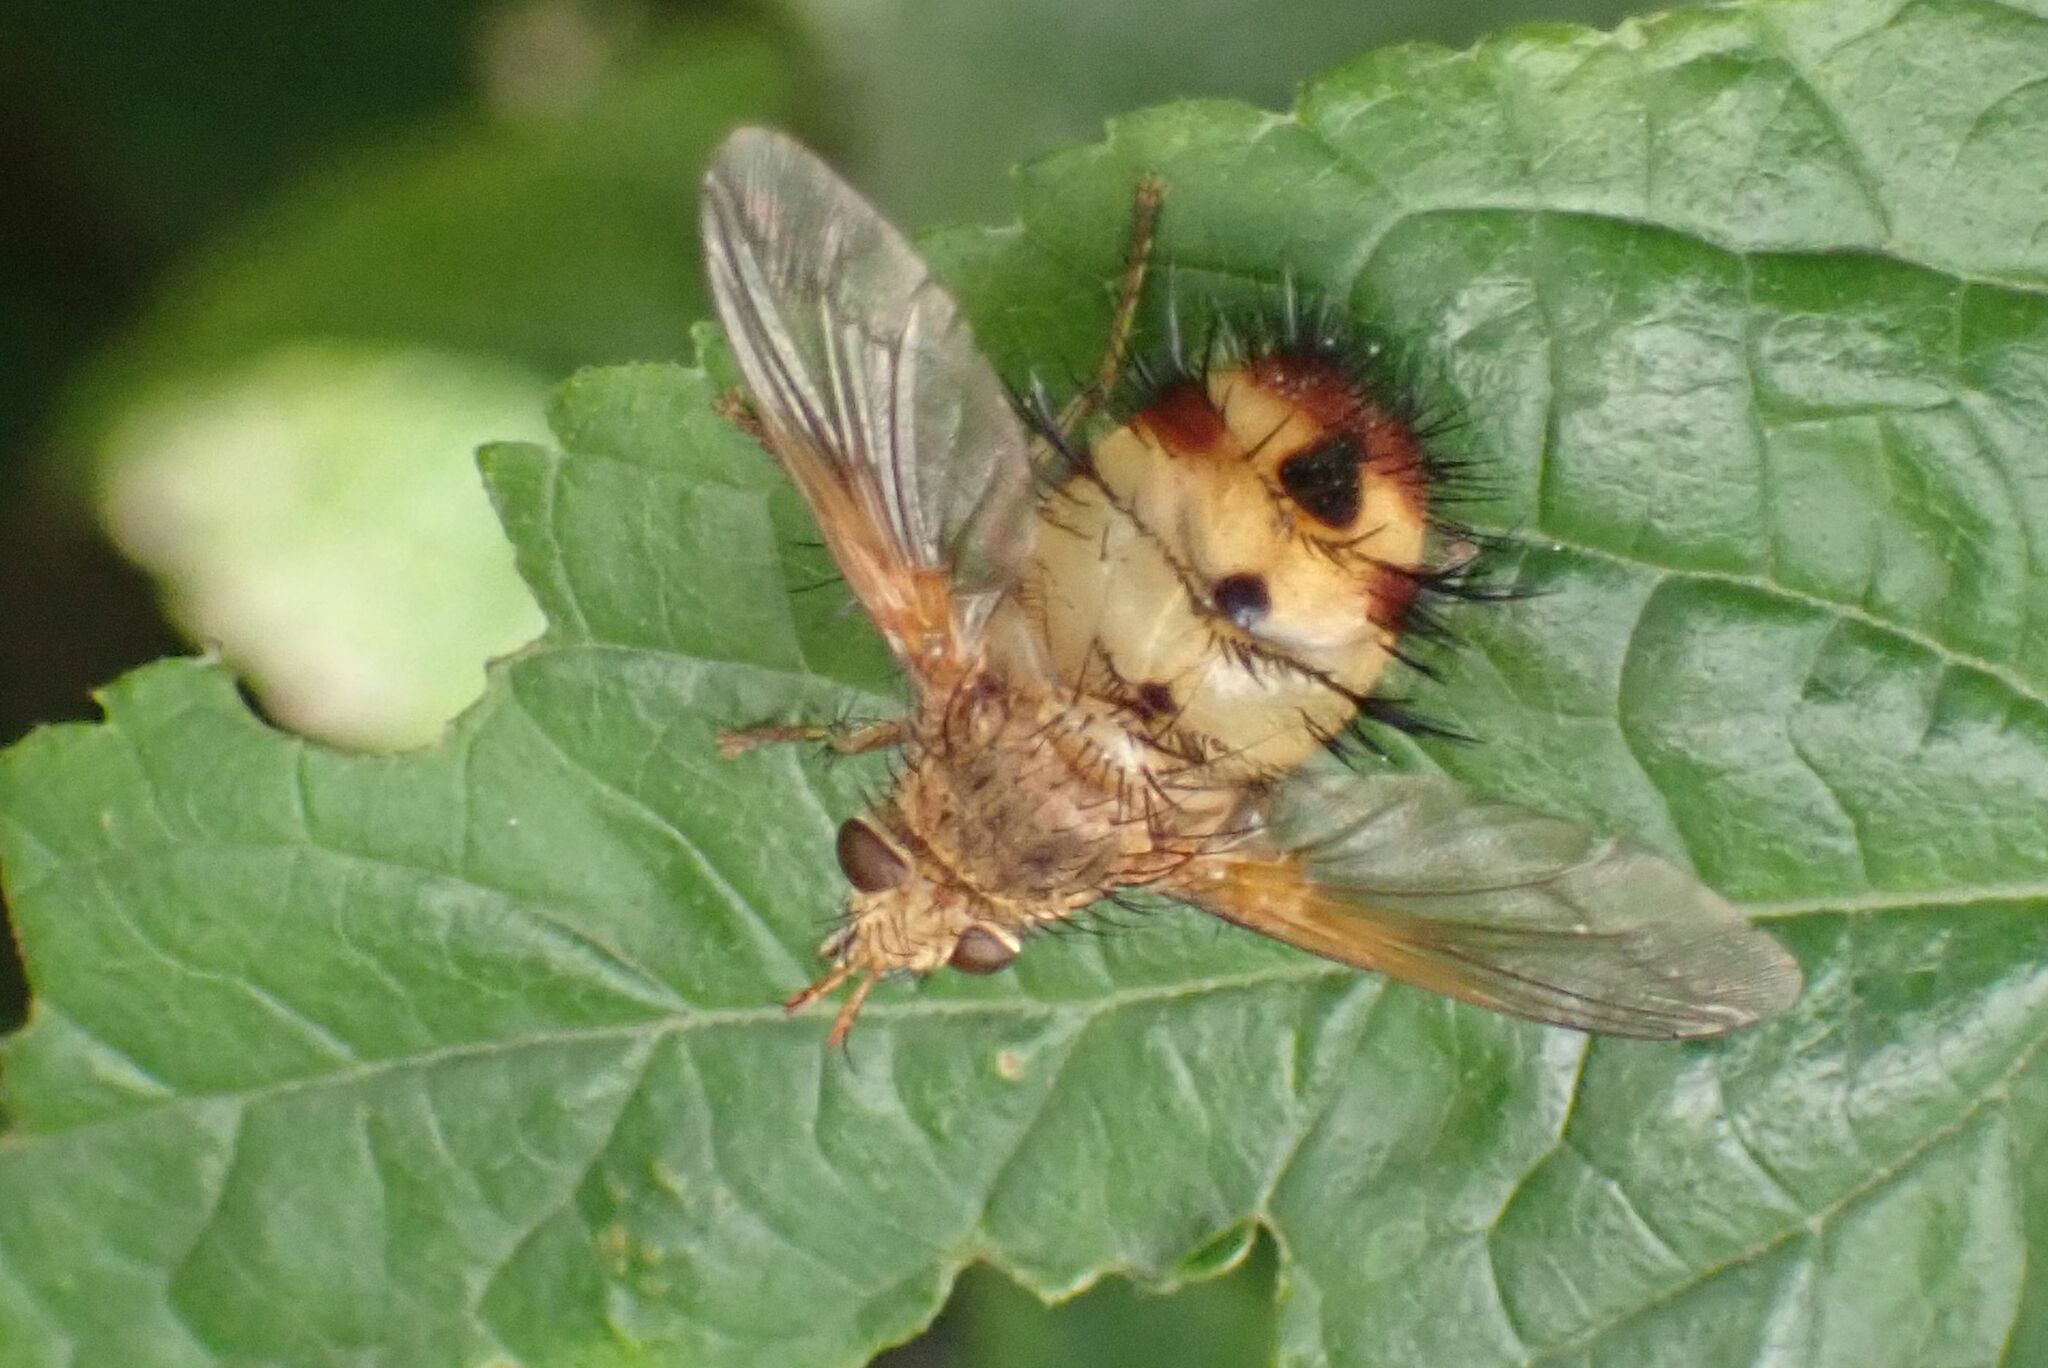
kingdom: Animalia
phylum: Arthropoda
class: Insecta
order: Diptera
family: Tachinidae
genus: Dejeania
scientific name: Dejeania bombylans
